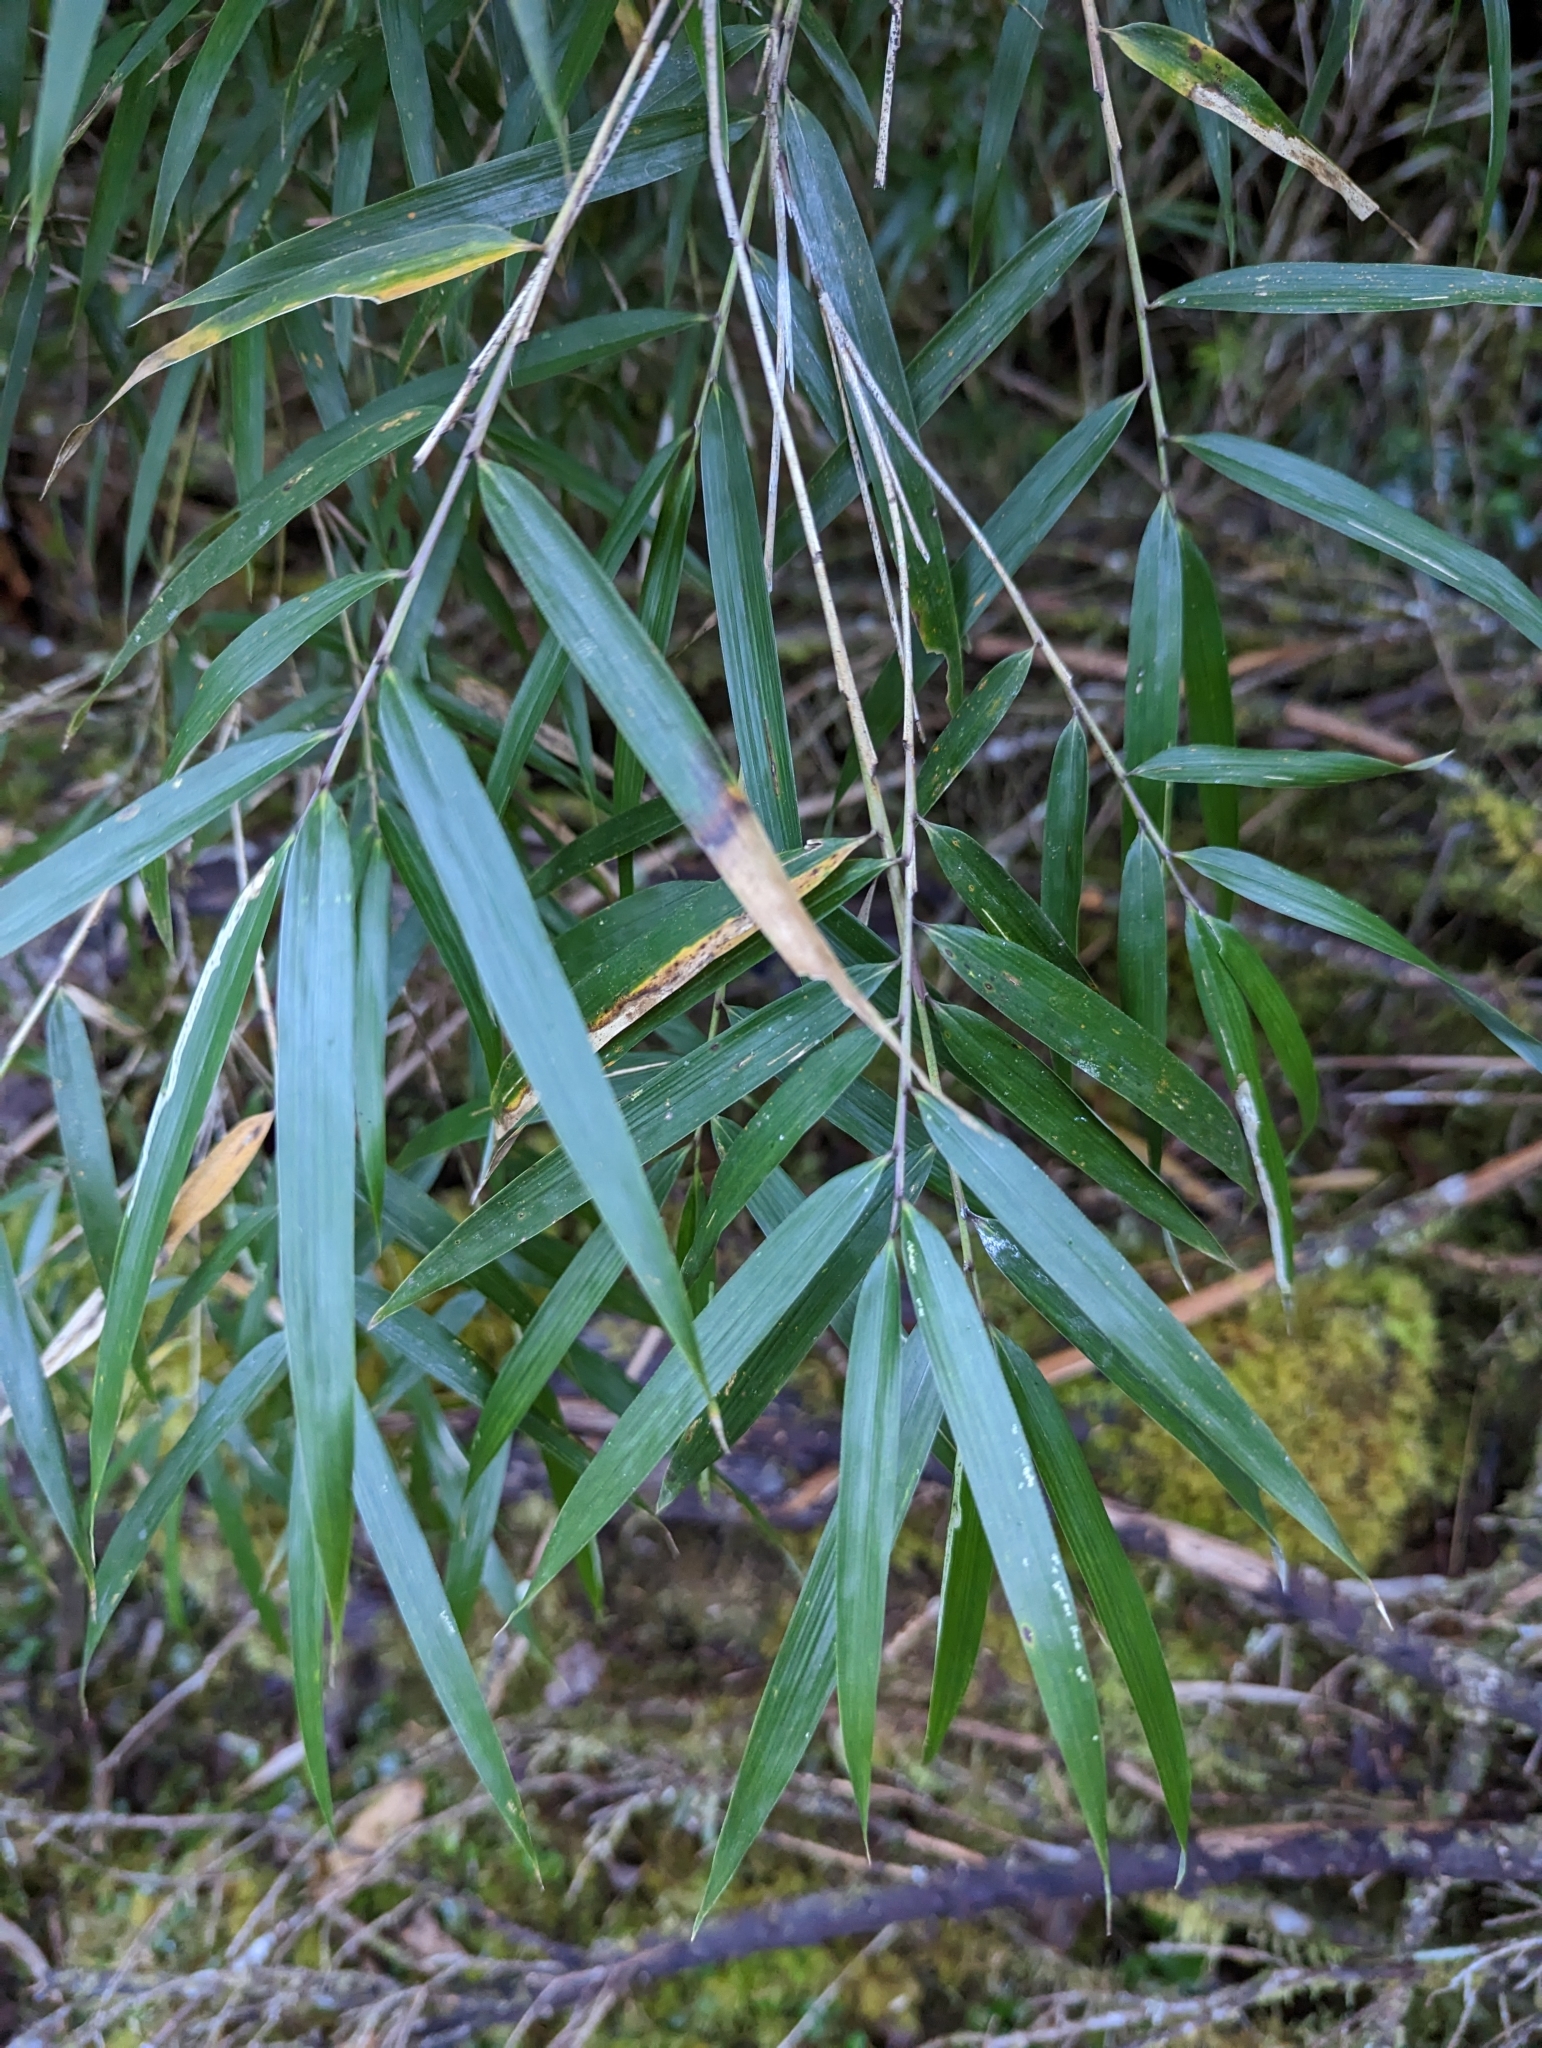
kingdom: Plantae
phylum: Tracheophyta
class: Liliopsida
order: Poales
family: Poaceae
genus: Yushania
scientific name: Yushania niitakayamensis
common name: Yushan cane
